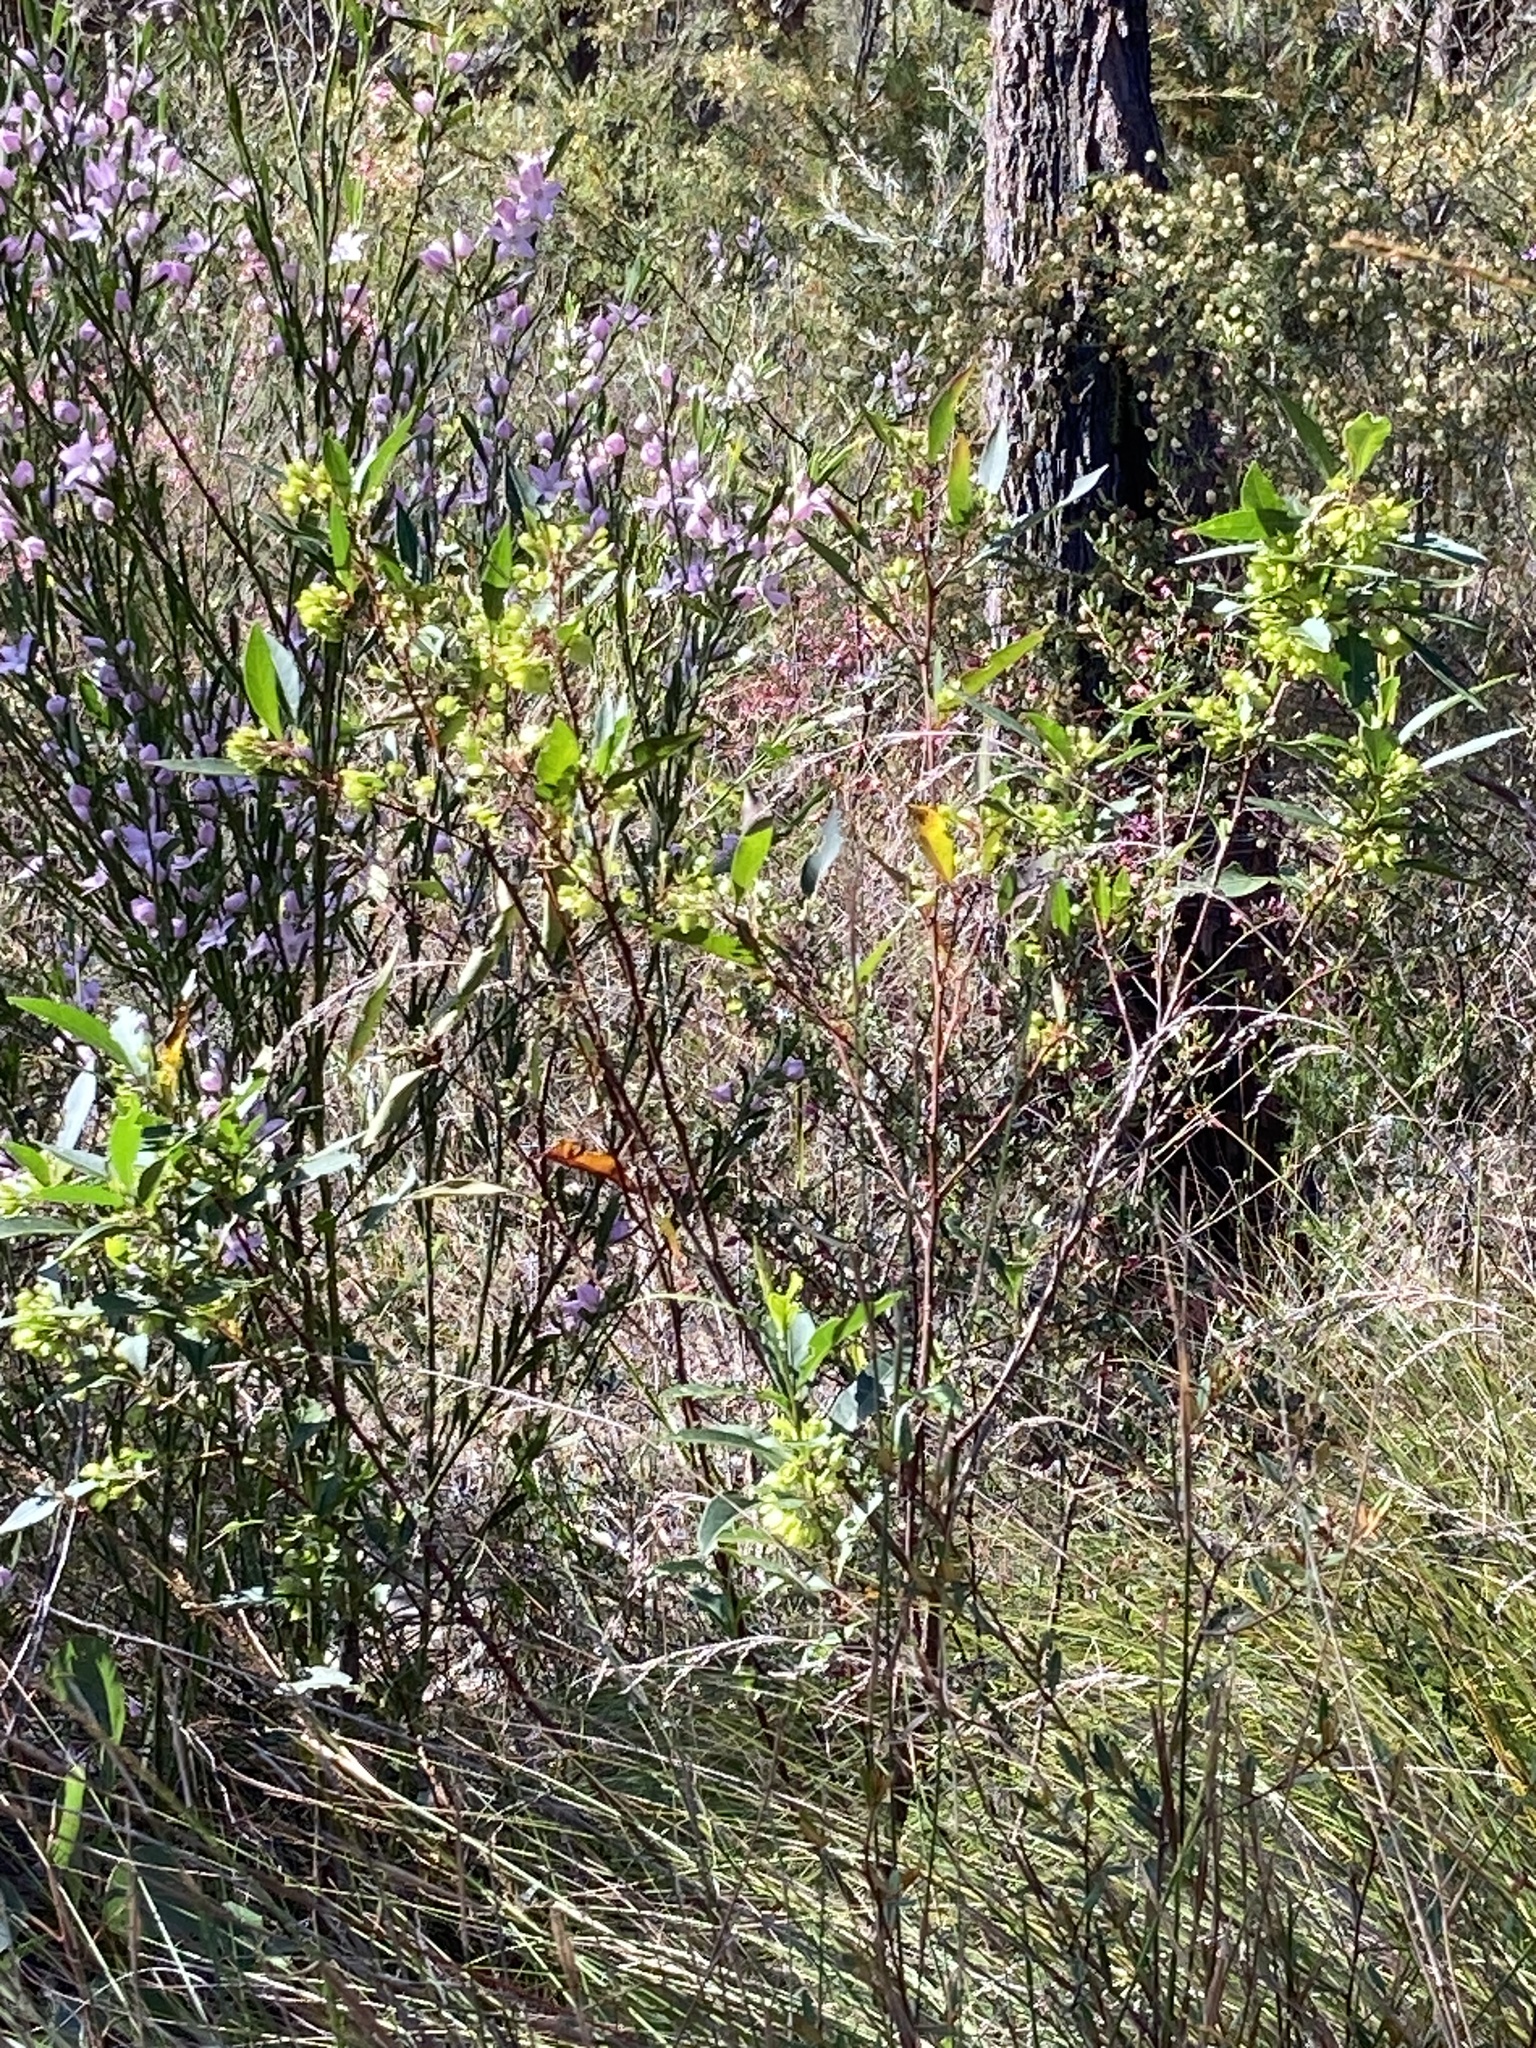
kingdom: Plantae
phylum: Tracheophyta
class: Magnoliopsida
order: Sapindales
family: Sapindaceae
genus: Dodonaea
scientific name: Dodonaea triquetra
